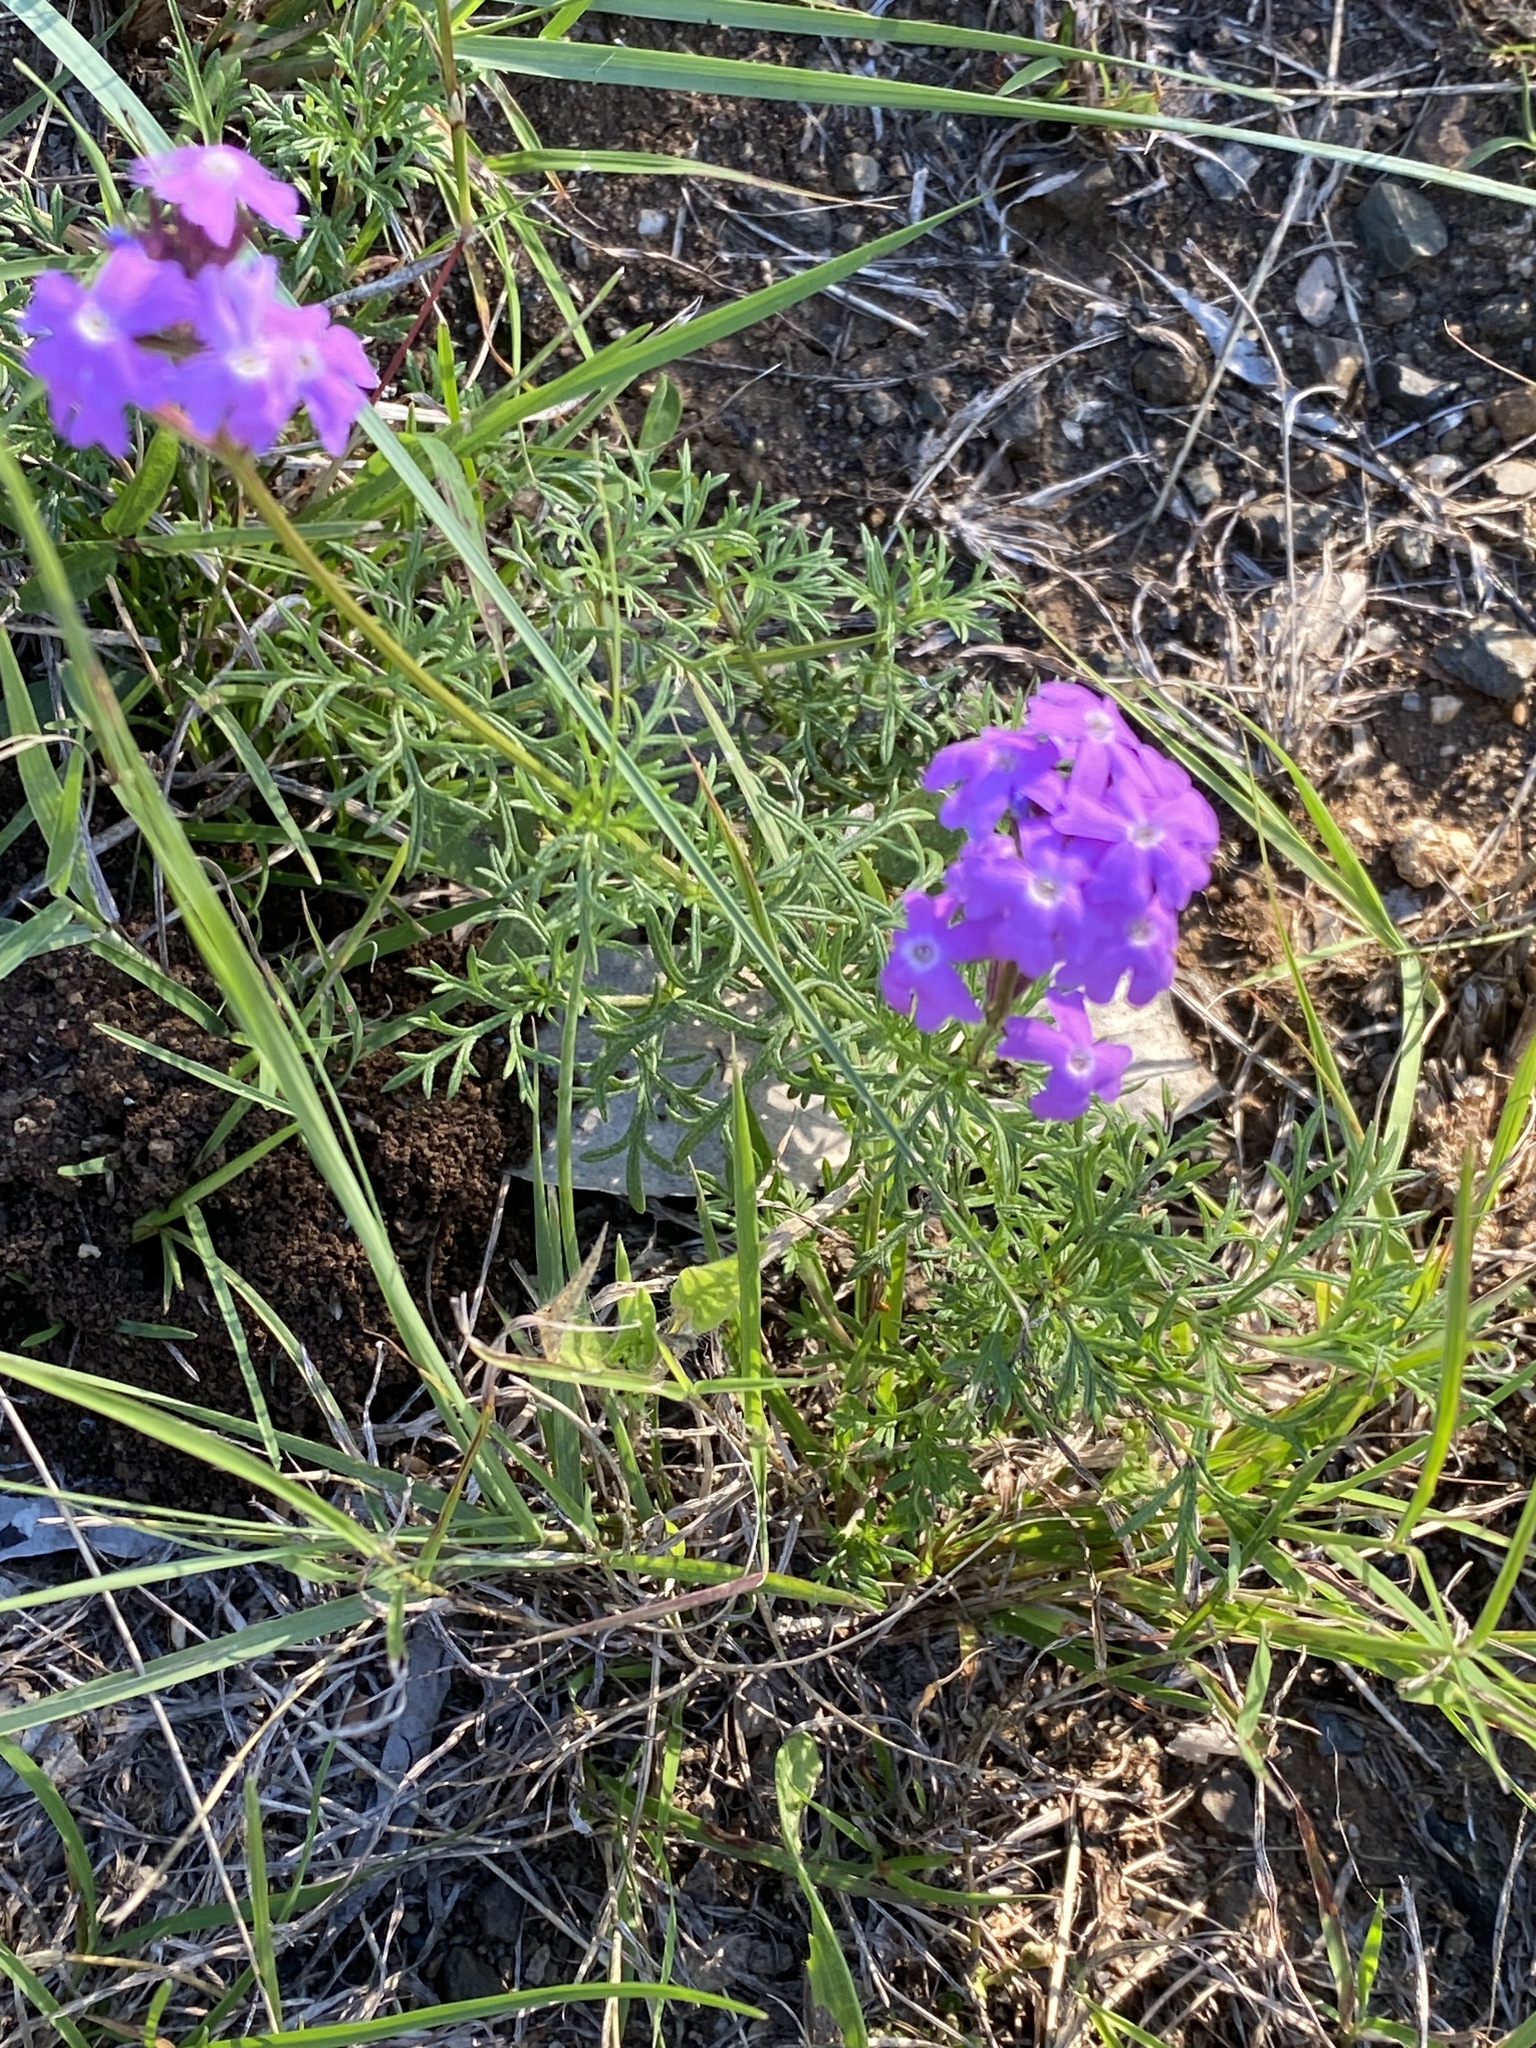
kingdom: Plantae
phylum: Tracheophyta
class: Magnoliopsida
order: Lamiales
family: Verbenaceae
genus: Verbena
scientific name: Verbena aristigera
